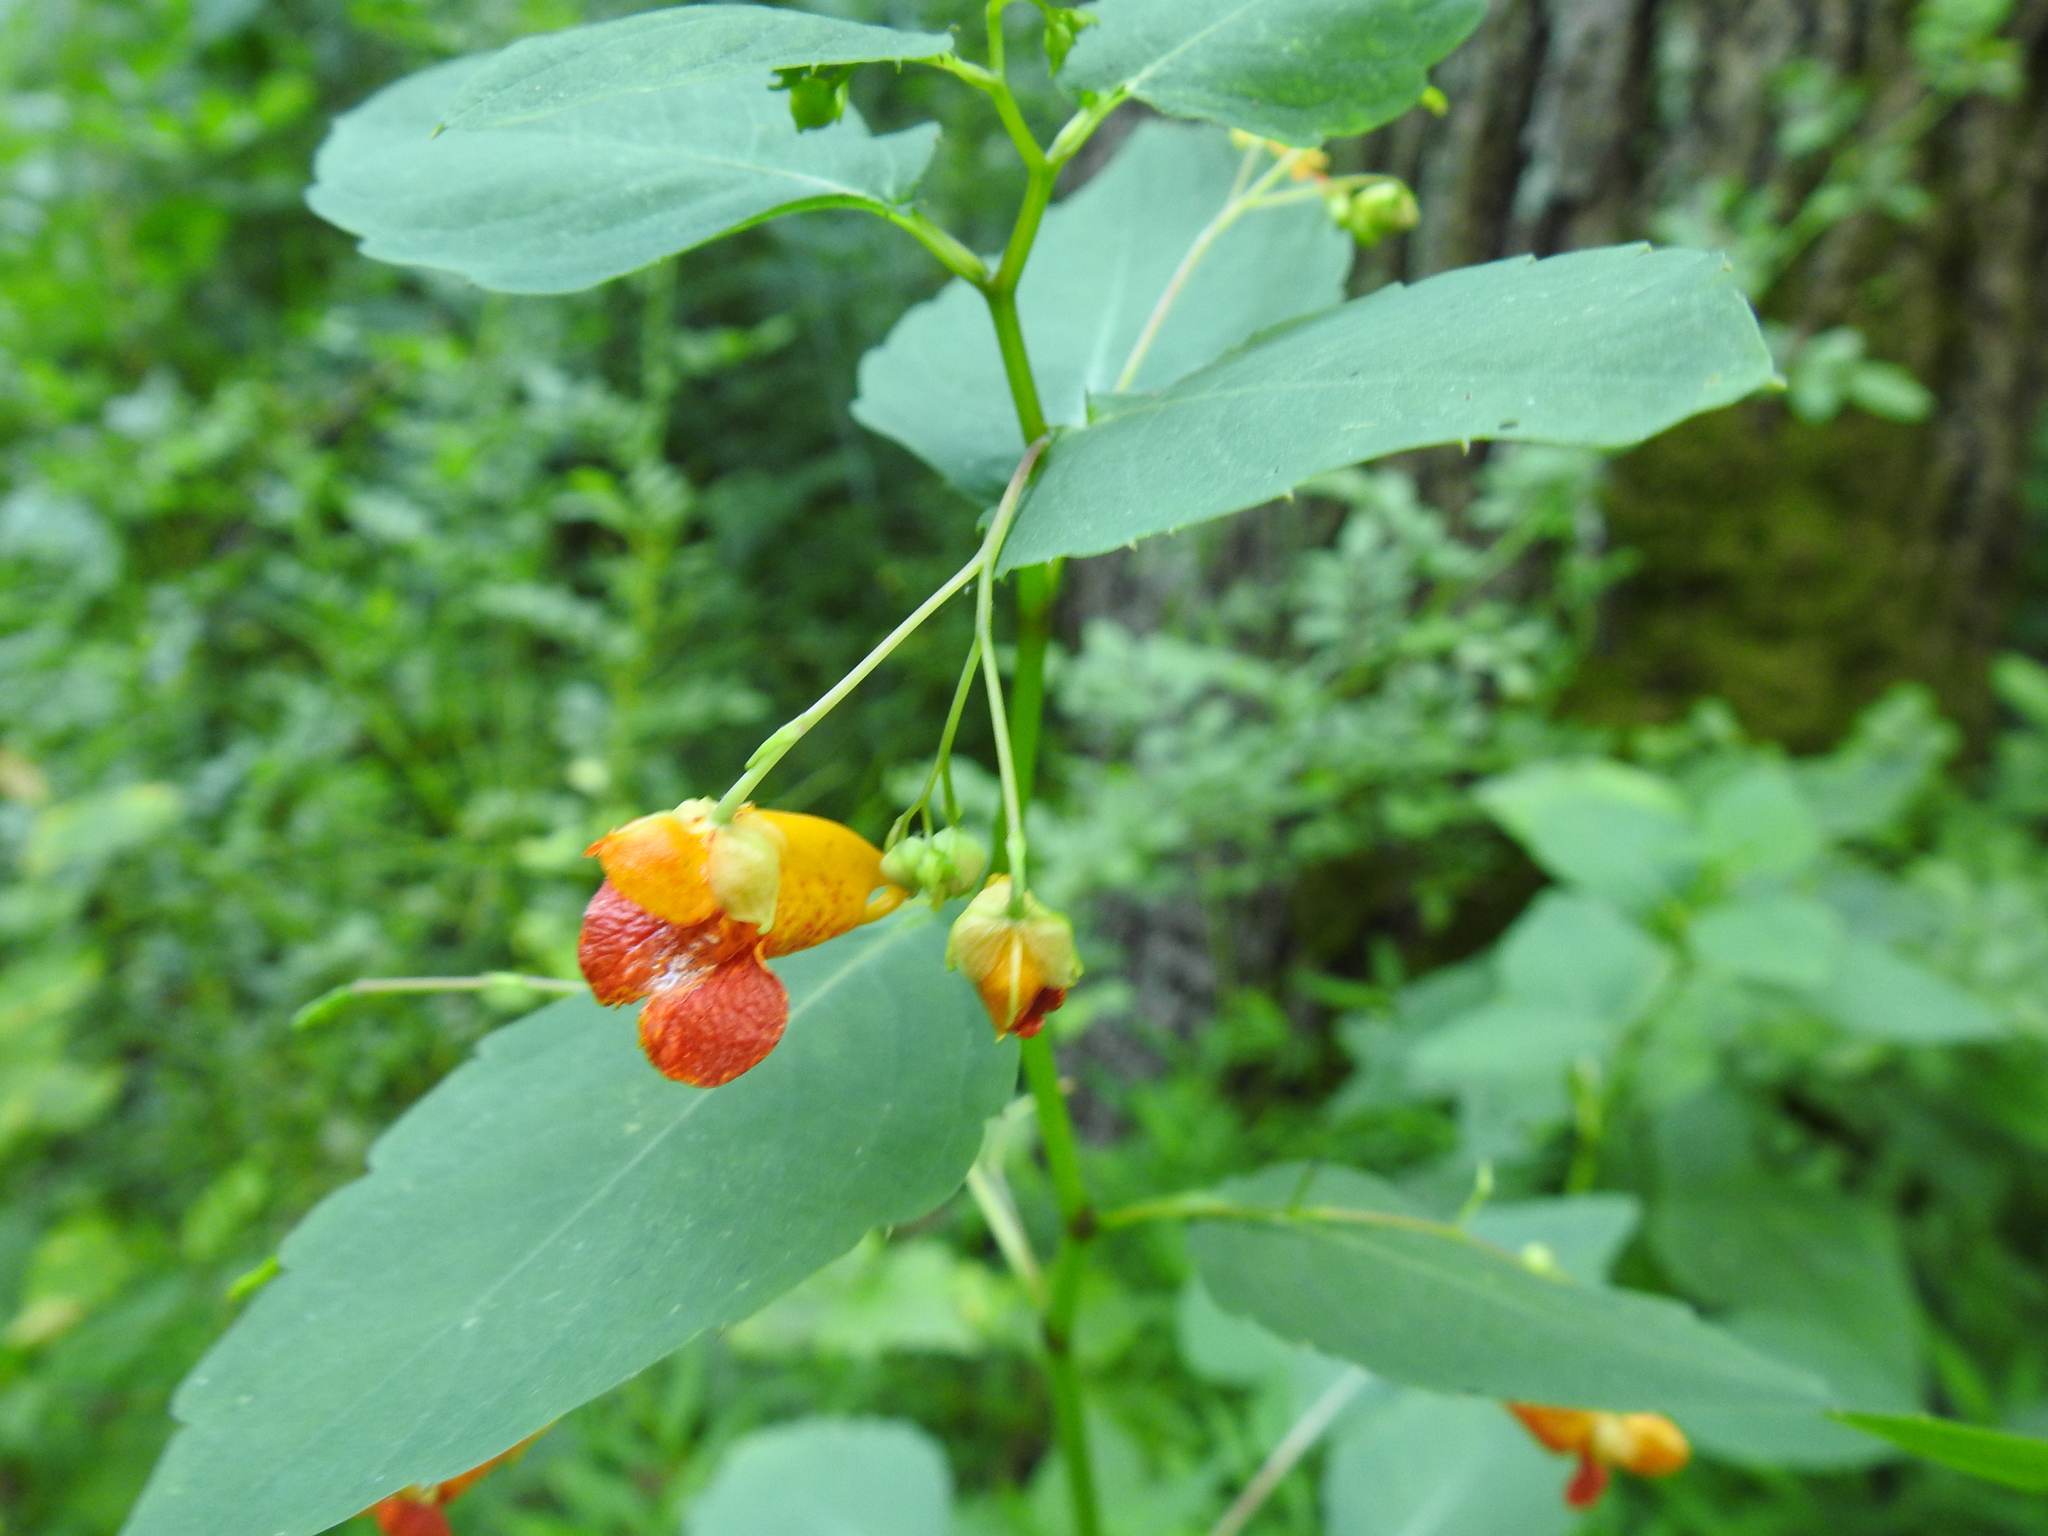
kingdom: Plantae
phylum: Tracheophyta
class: Magnoliopsida
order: Ericales
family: Balsaminaceae
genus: Impatiens
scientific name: Impatiens capensis
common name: Orange balsam
